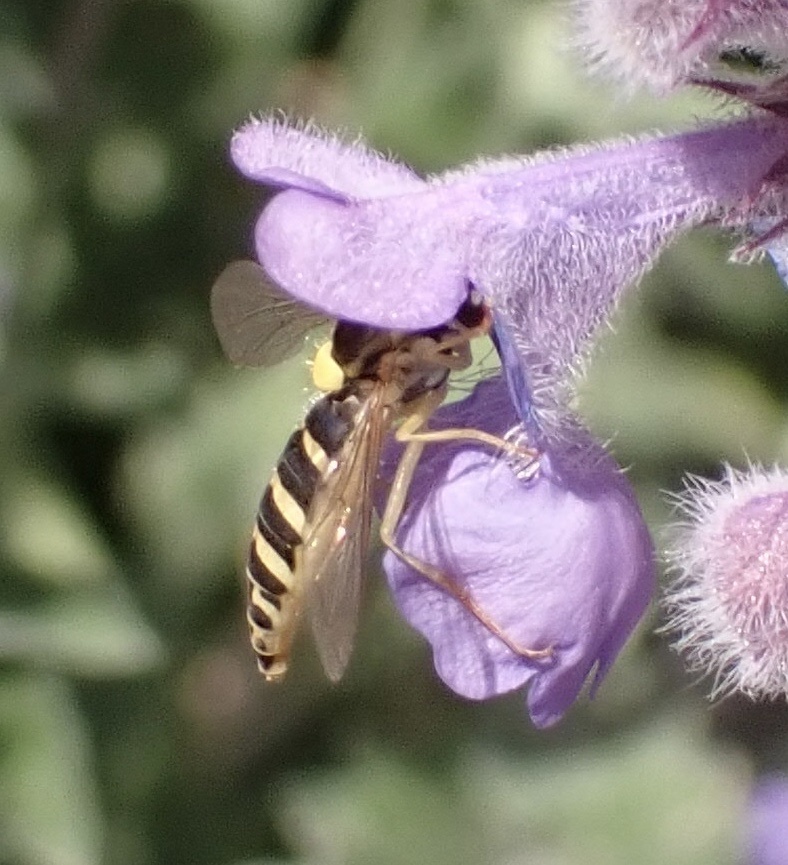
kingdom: Animalia
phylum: Arthropoda
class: Insecta
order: Diptera
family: Syrphidae
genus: Sphaerophoria
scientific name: Sphaerophoria
